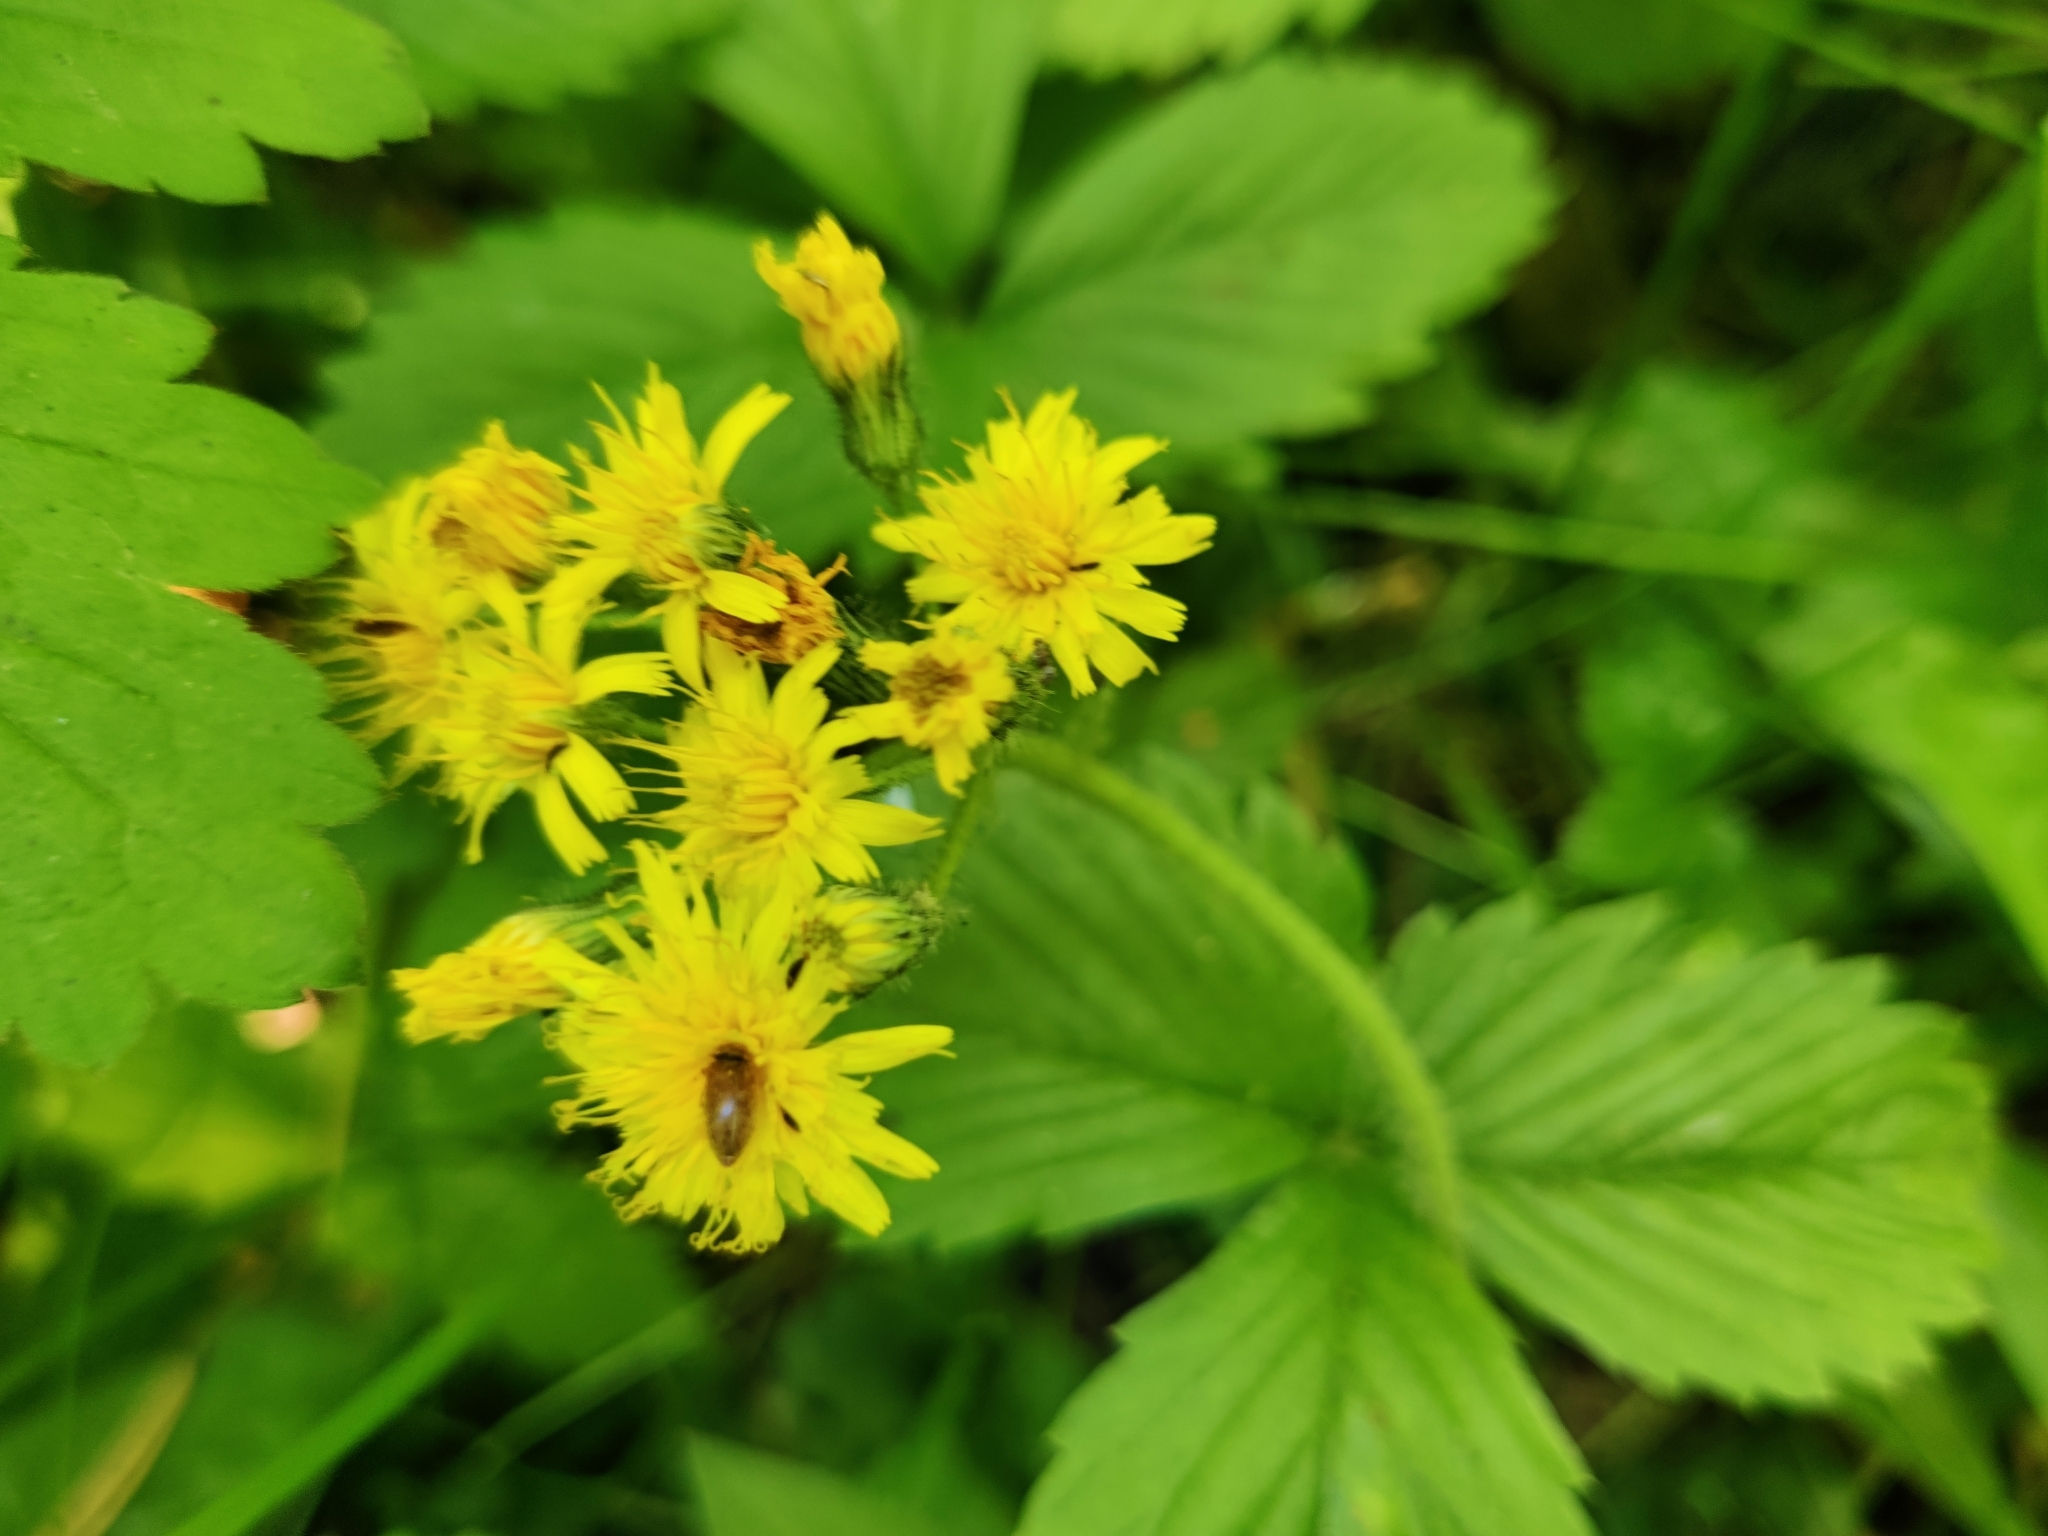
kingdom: Plantae
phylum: Tracheophyta
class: Magnoliopsida
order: Asterales
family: Asteraceae
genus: Pilosella
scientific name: Pilosella onegensis
